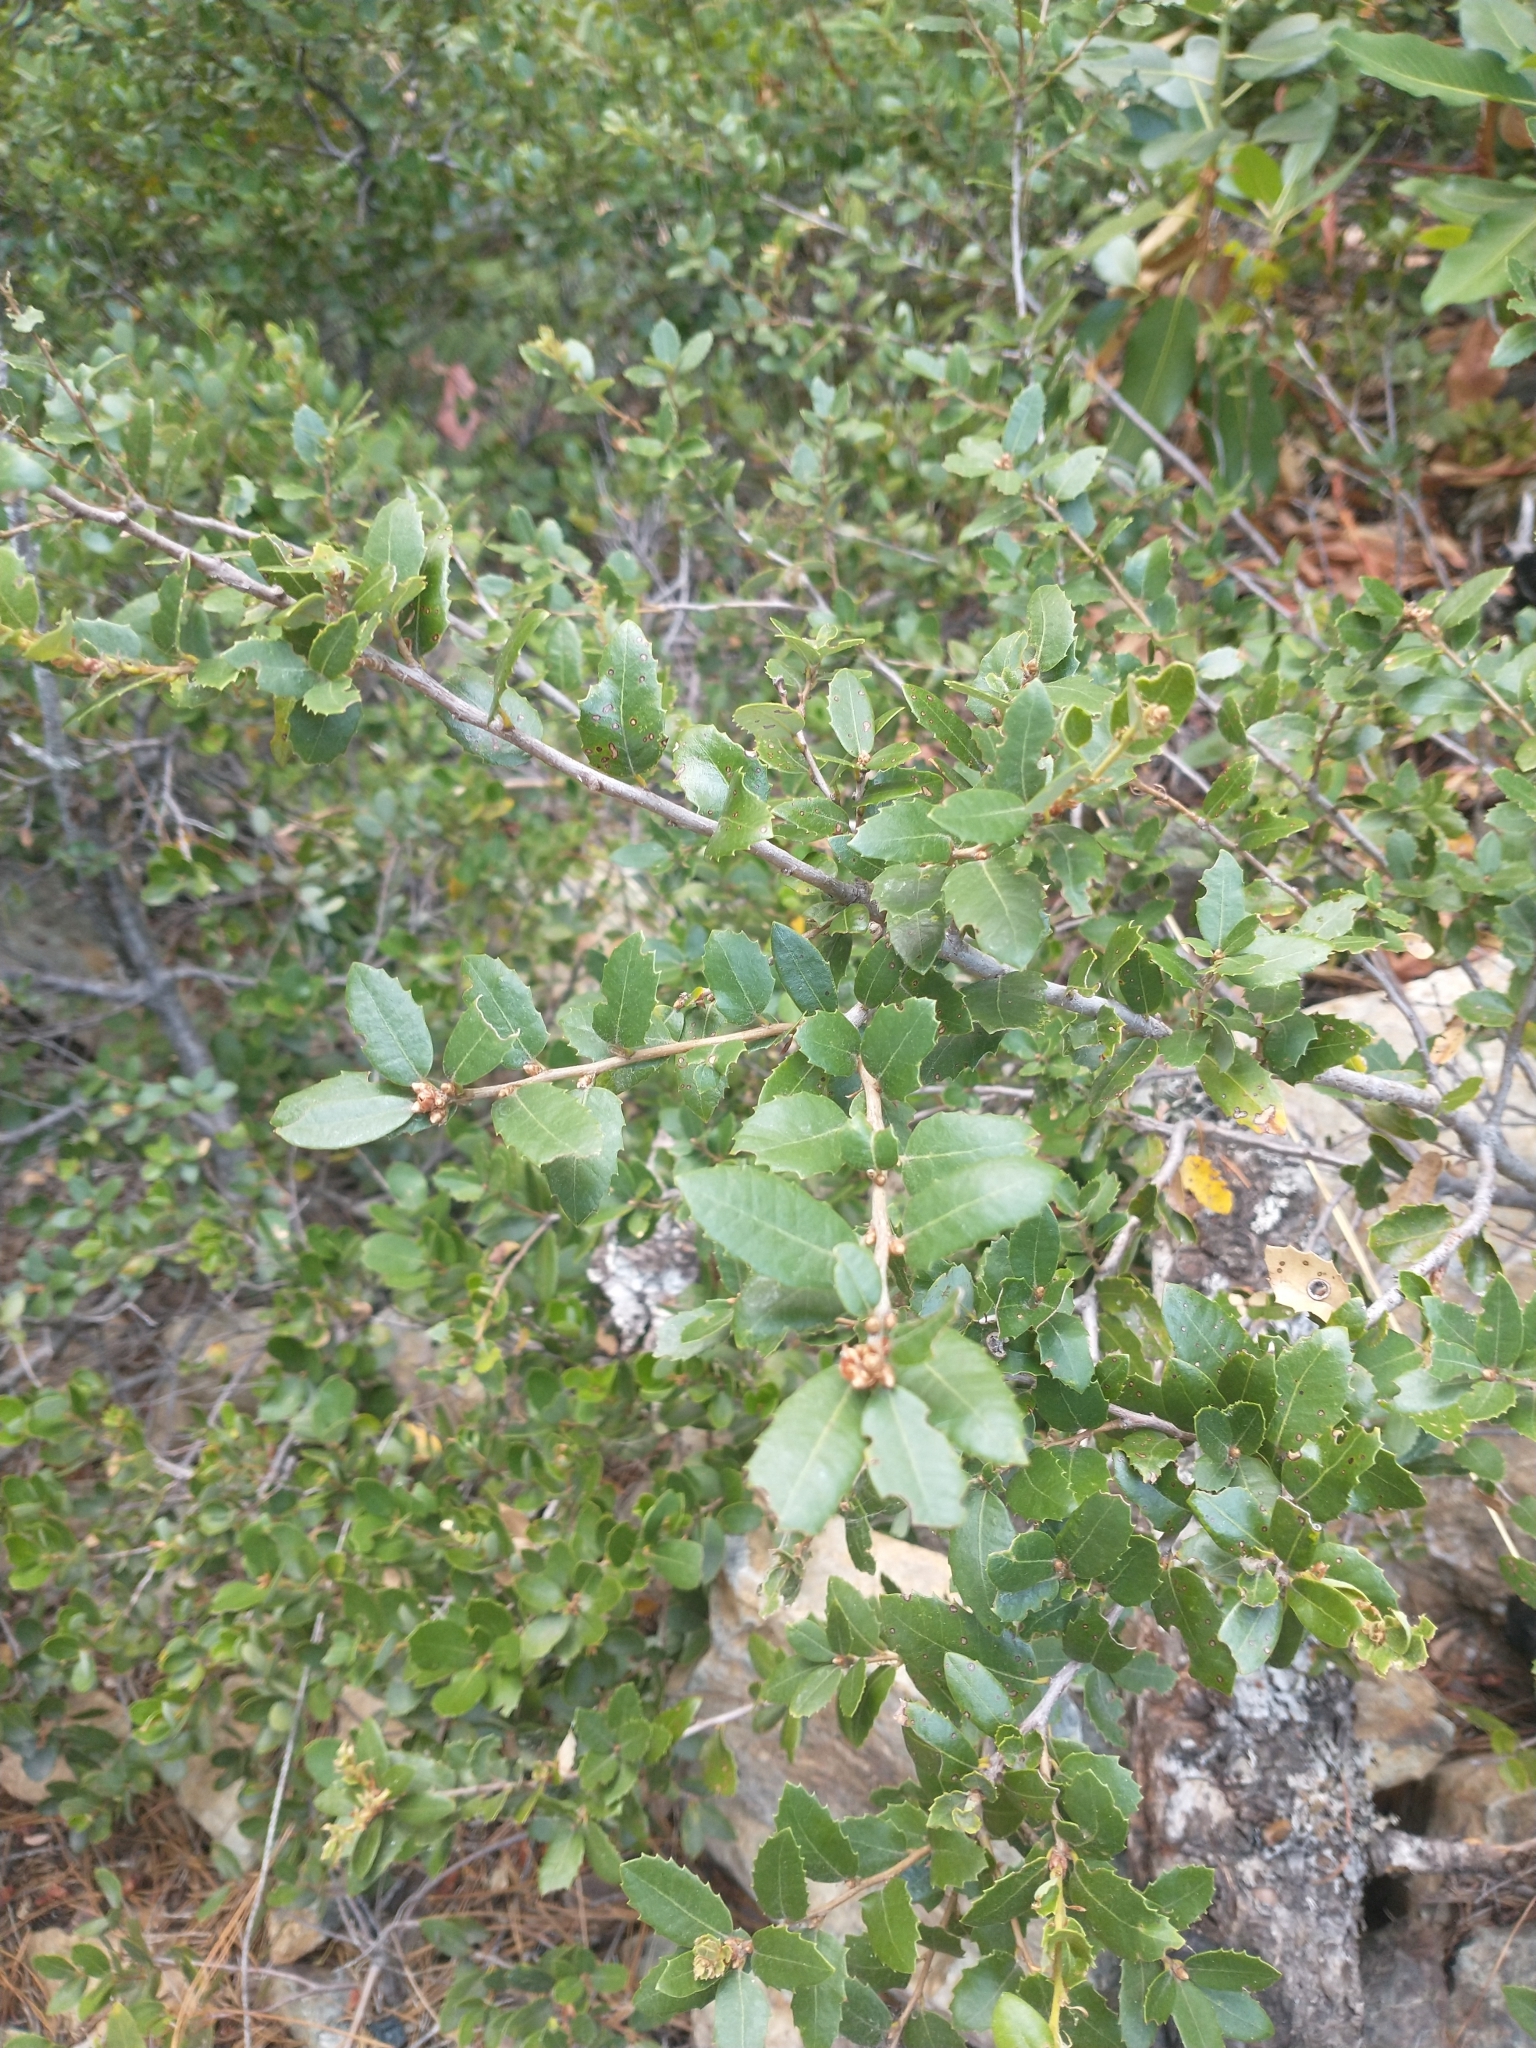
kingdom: Plantae
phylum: Tracheophyta
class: Magnoliopsida
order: Fagales
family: Fagaceae
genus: Quercus
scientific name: Quercus chrysolepis
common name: Canyon live oak
